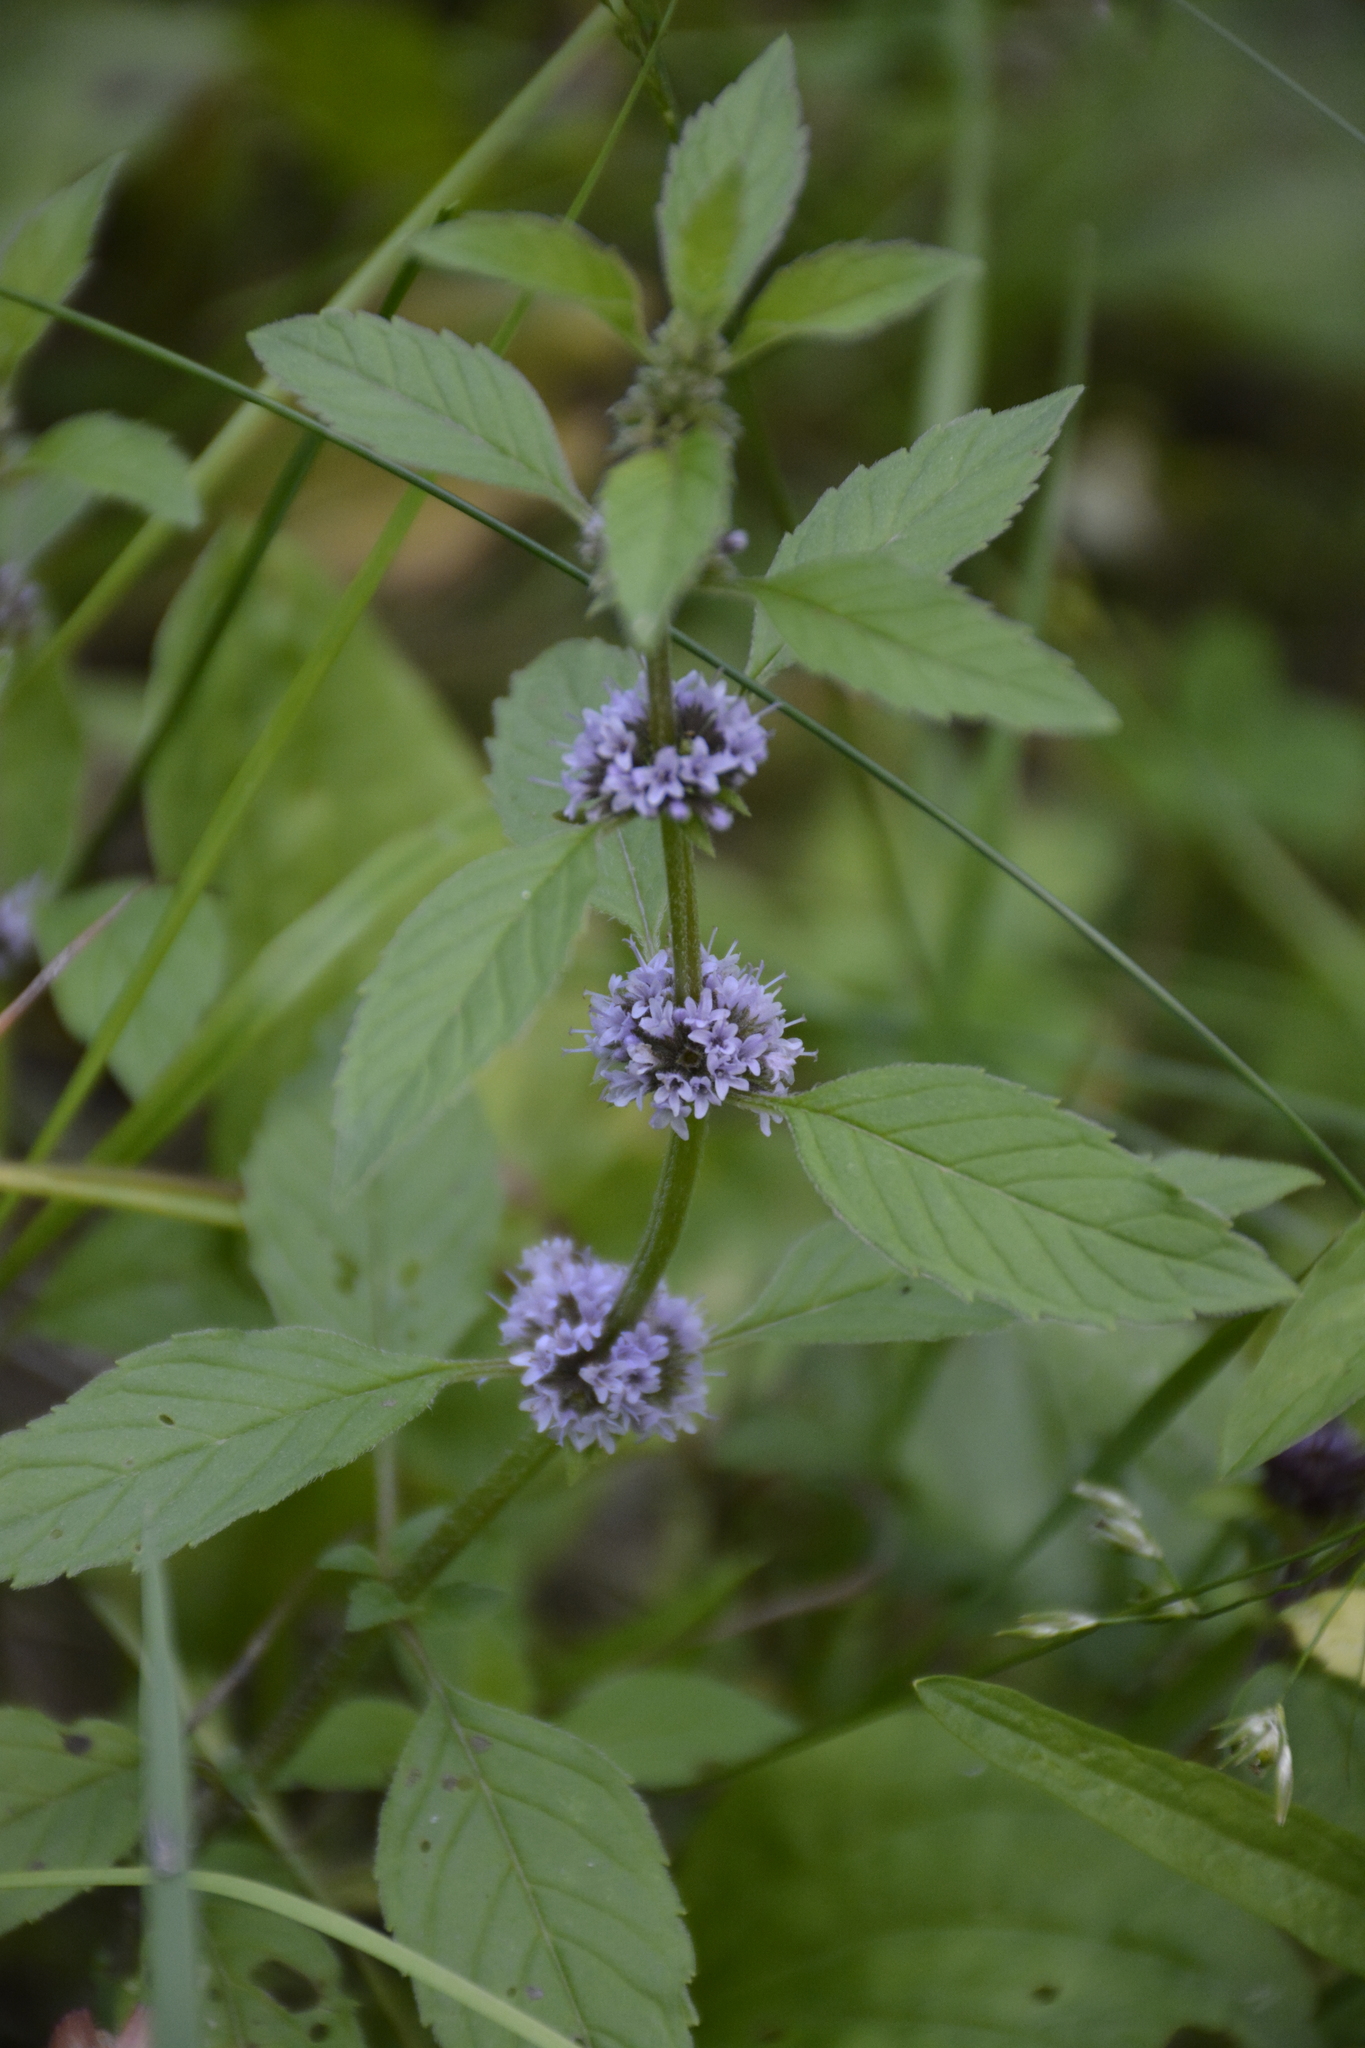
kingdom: Plantae
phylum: Tracheophyta
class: Magnoliopsida
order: Lamiales
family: Lamiaceae
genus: Mentha
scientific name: Mentha arvensis
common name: Corn mint
